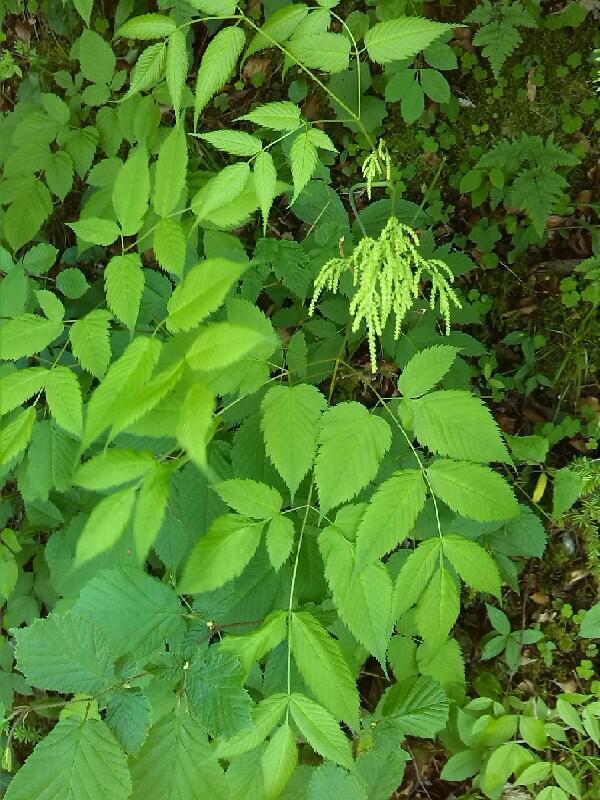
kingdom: Plantae
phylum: Tracheophyta
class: Magnoliopsida
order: Rosales
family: Rosaceae
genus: Aruncus
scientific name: Aruncus dioicus
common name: Buck's-beard
